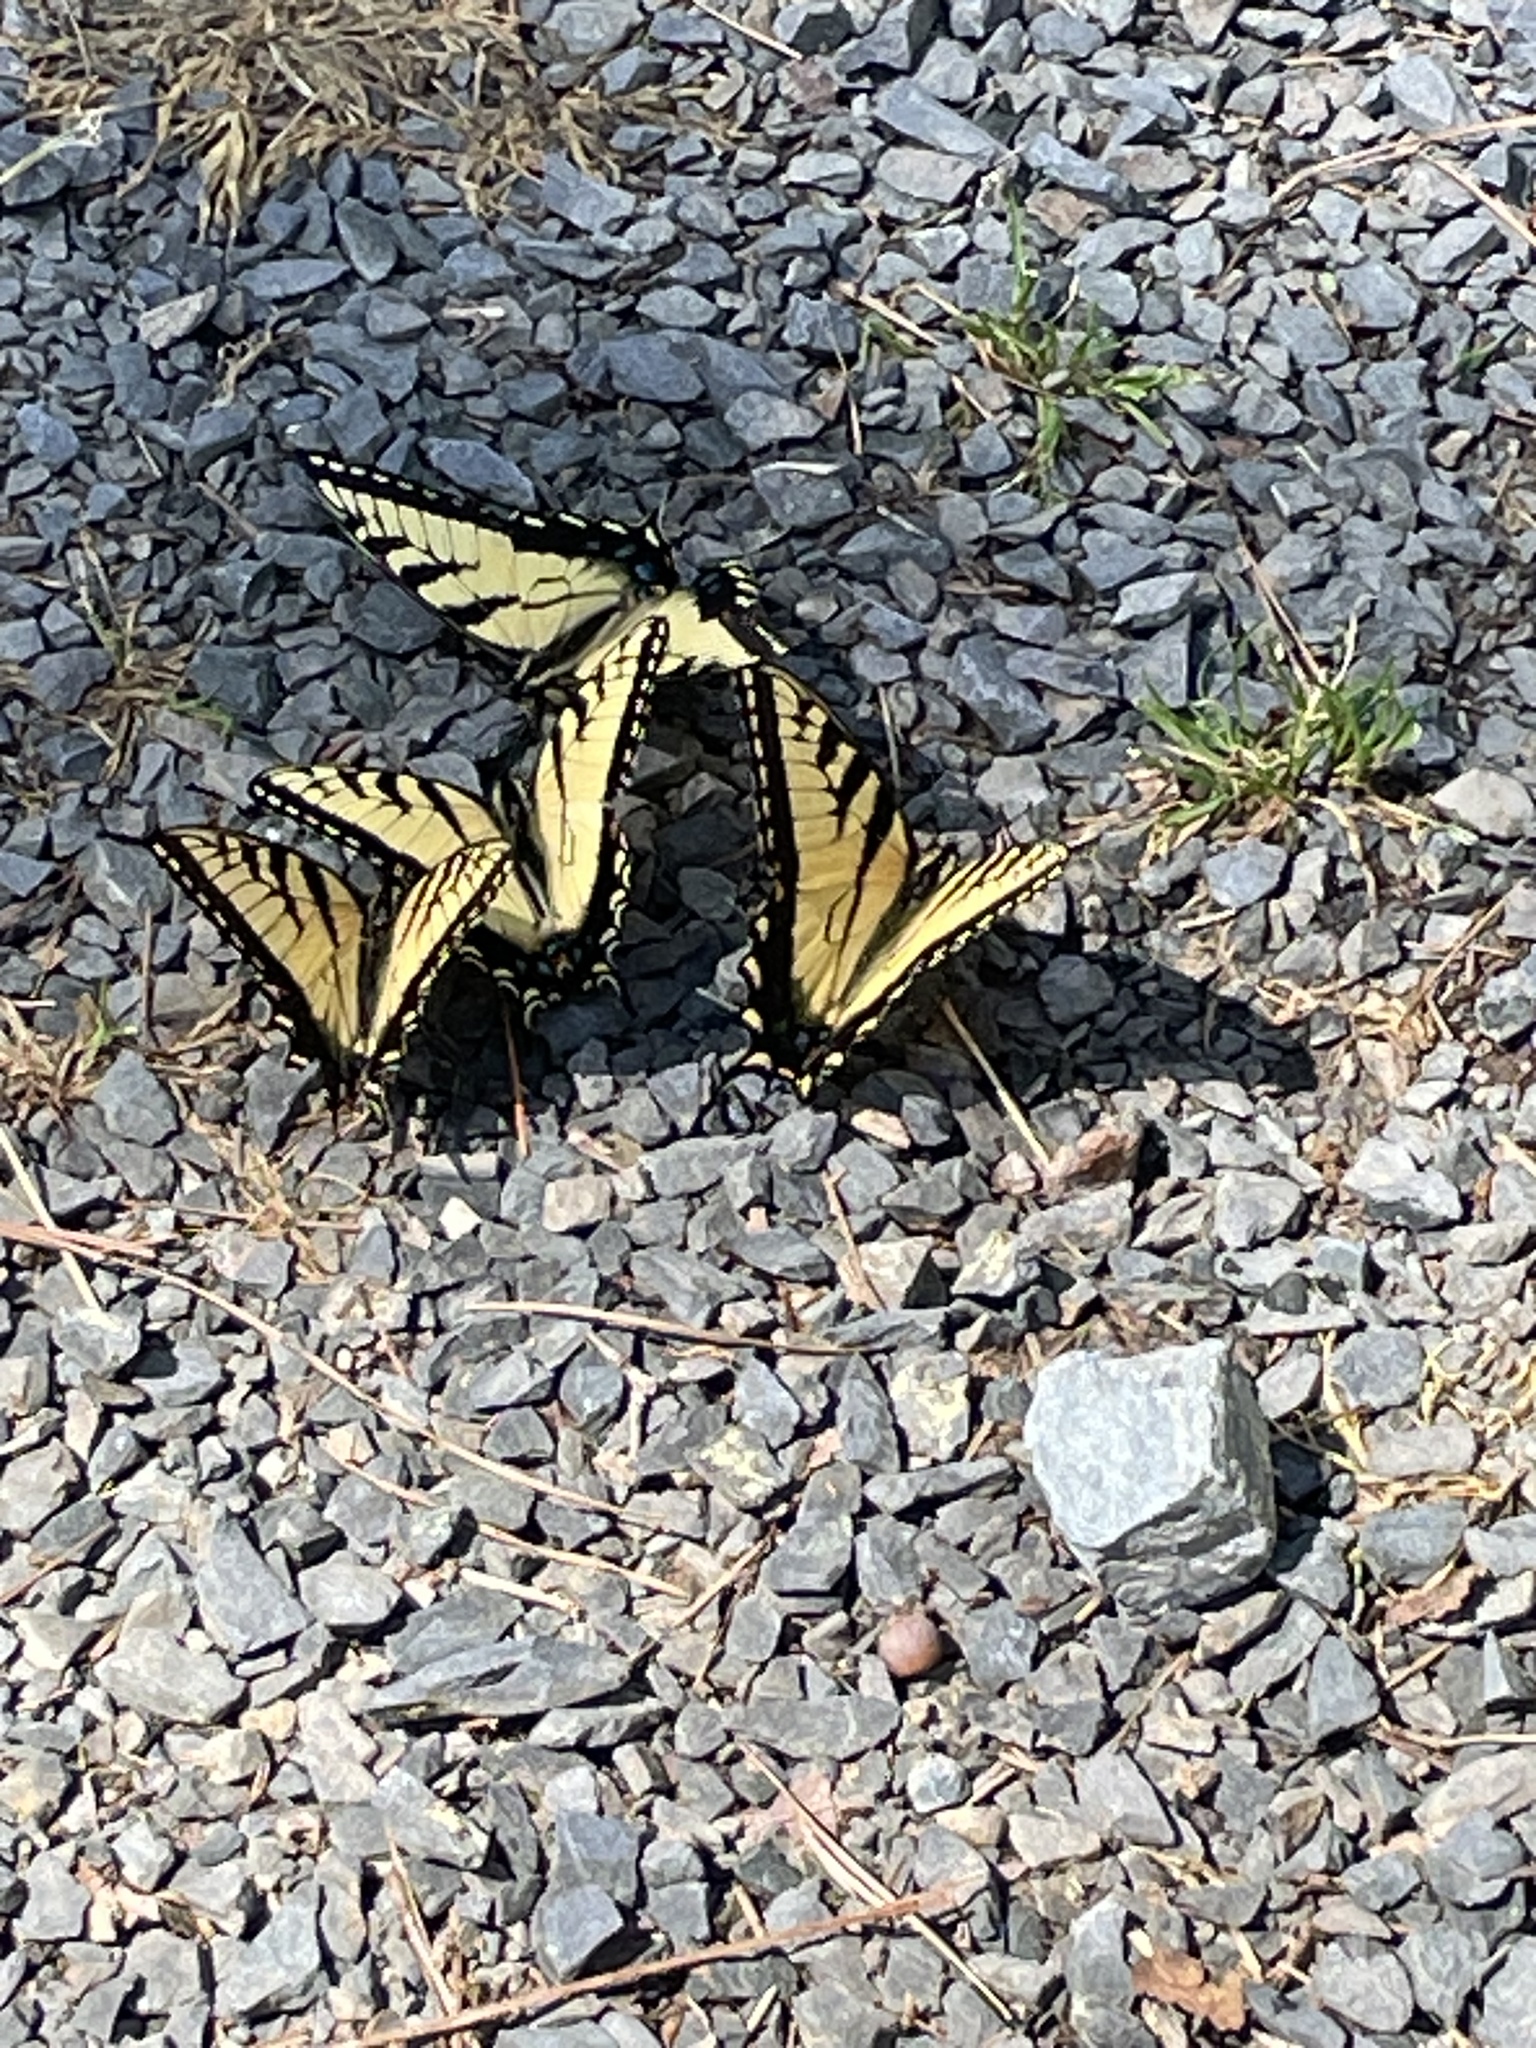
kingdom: Animalia
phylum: Arthropoda
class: Insecta
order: Lepidoptera
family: Papilionidae
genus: Papilio
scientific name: Papilio glaucus
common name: Tiger swallowtail
